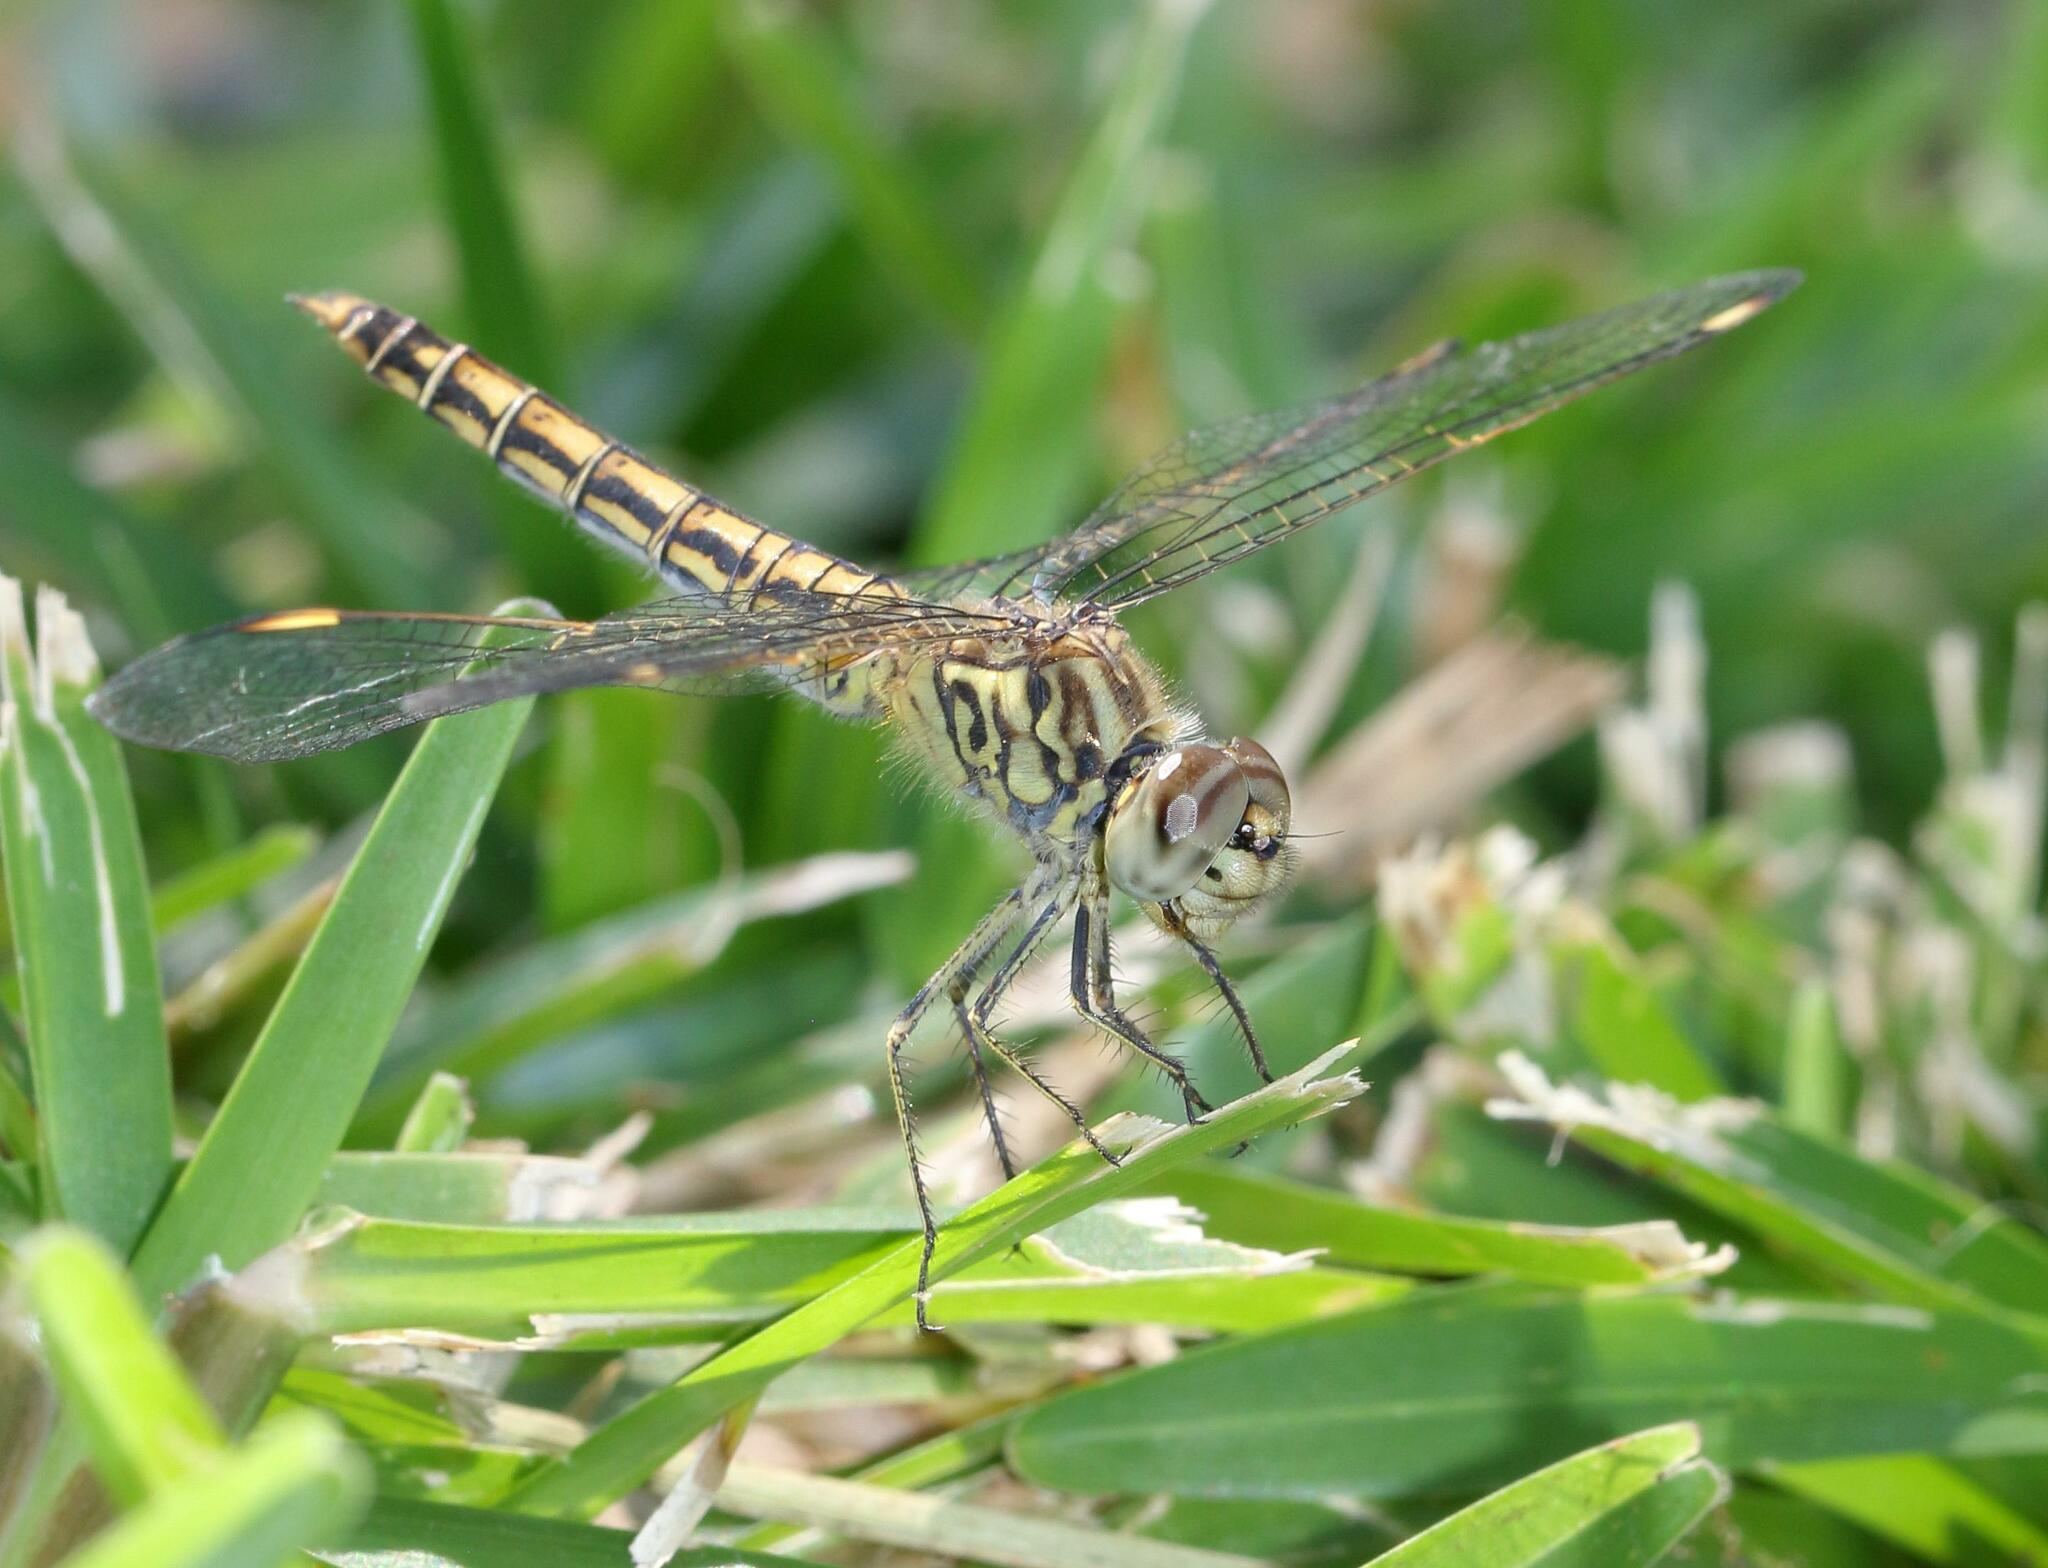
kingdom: Animalia
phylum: Arthropoda
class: Insecta
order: Odonata
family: Libellulidae
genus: Brachythemis
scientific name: Brachythemis leucosticta
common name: Banded groundling
